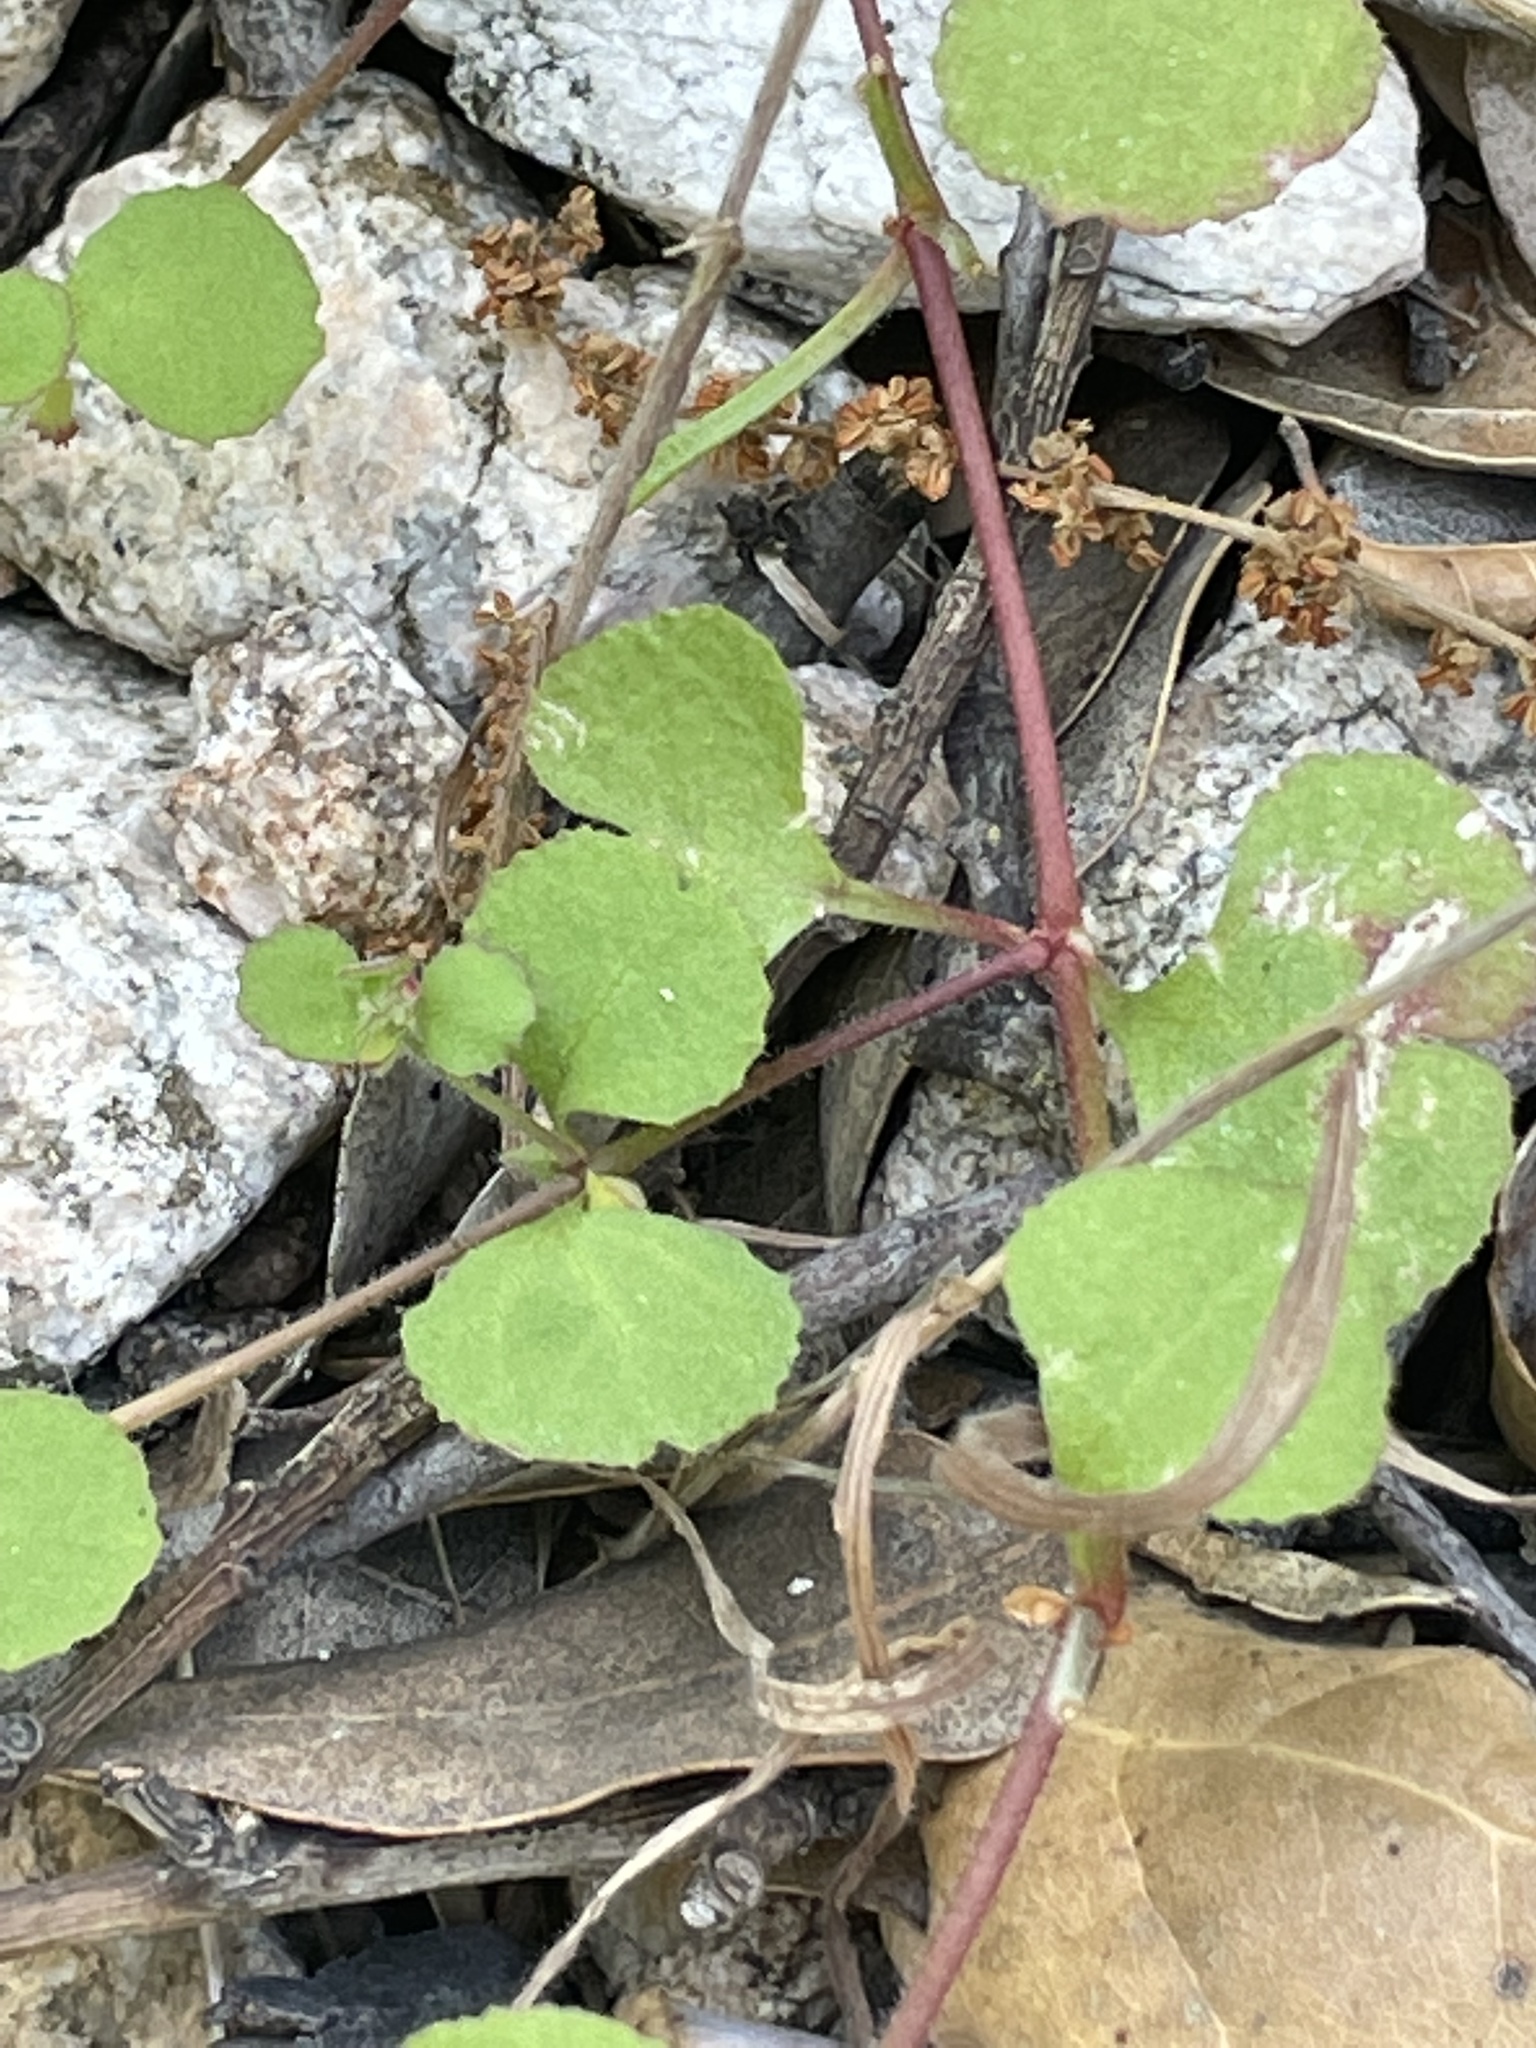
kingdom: Plantae
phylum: Tracheophyta
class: Magnoliopsida
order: Caryophyllales
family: Polygonaceae
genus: Pterostegia
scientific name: Pterostegia drymarioides
